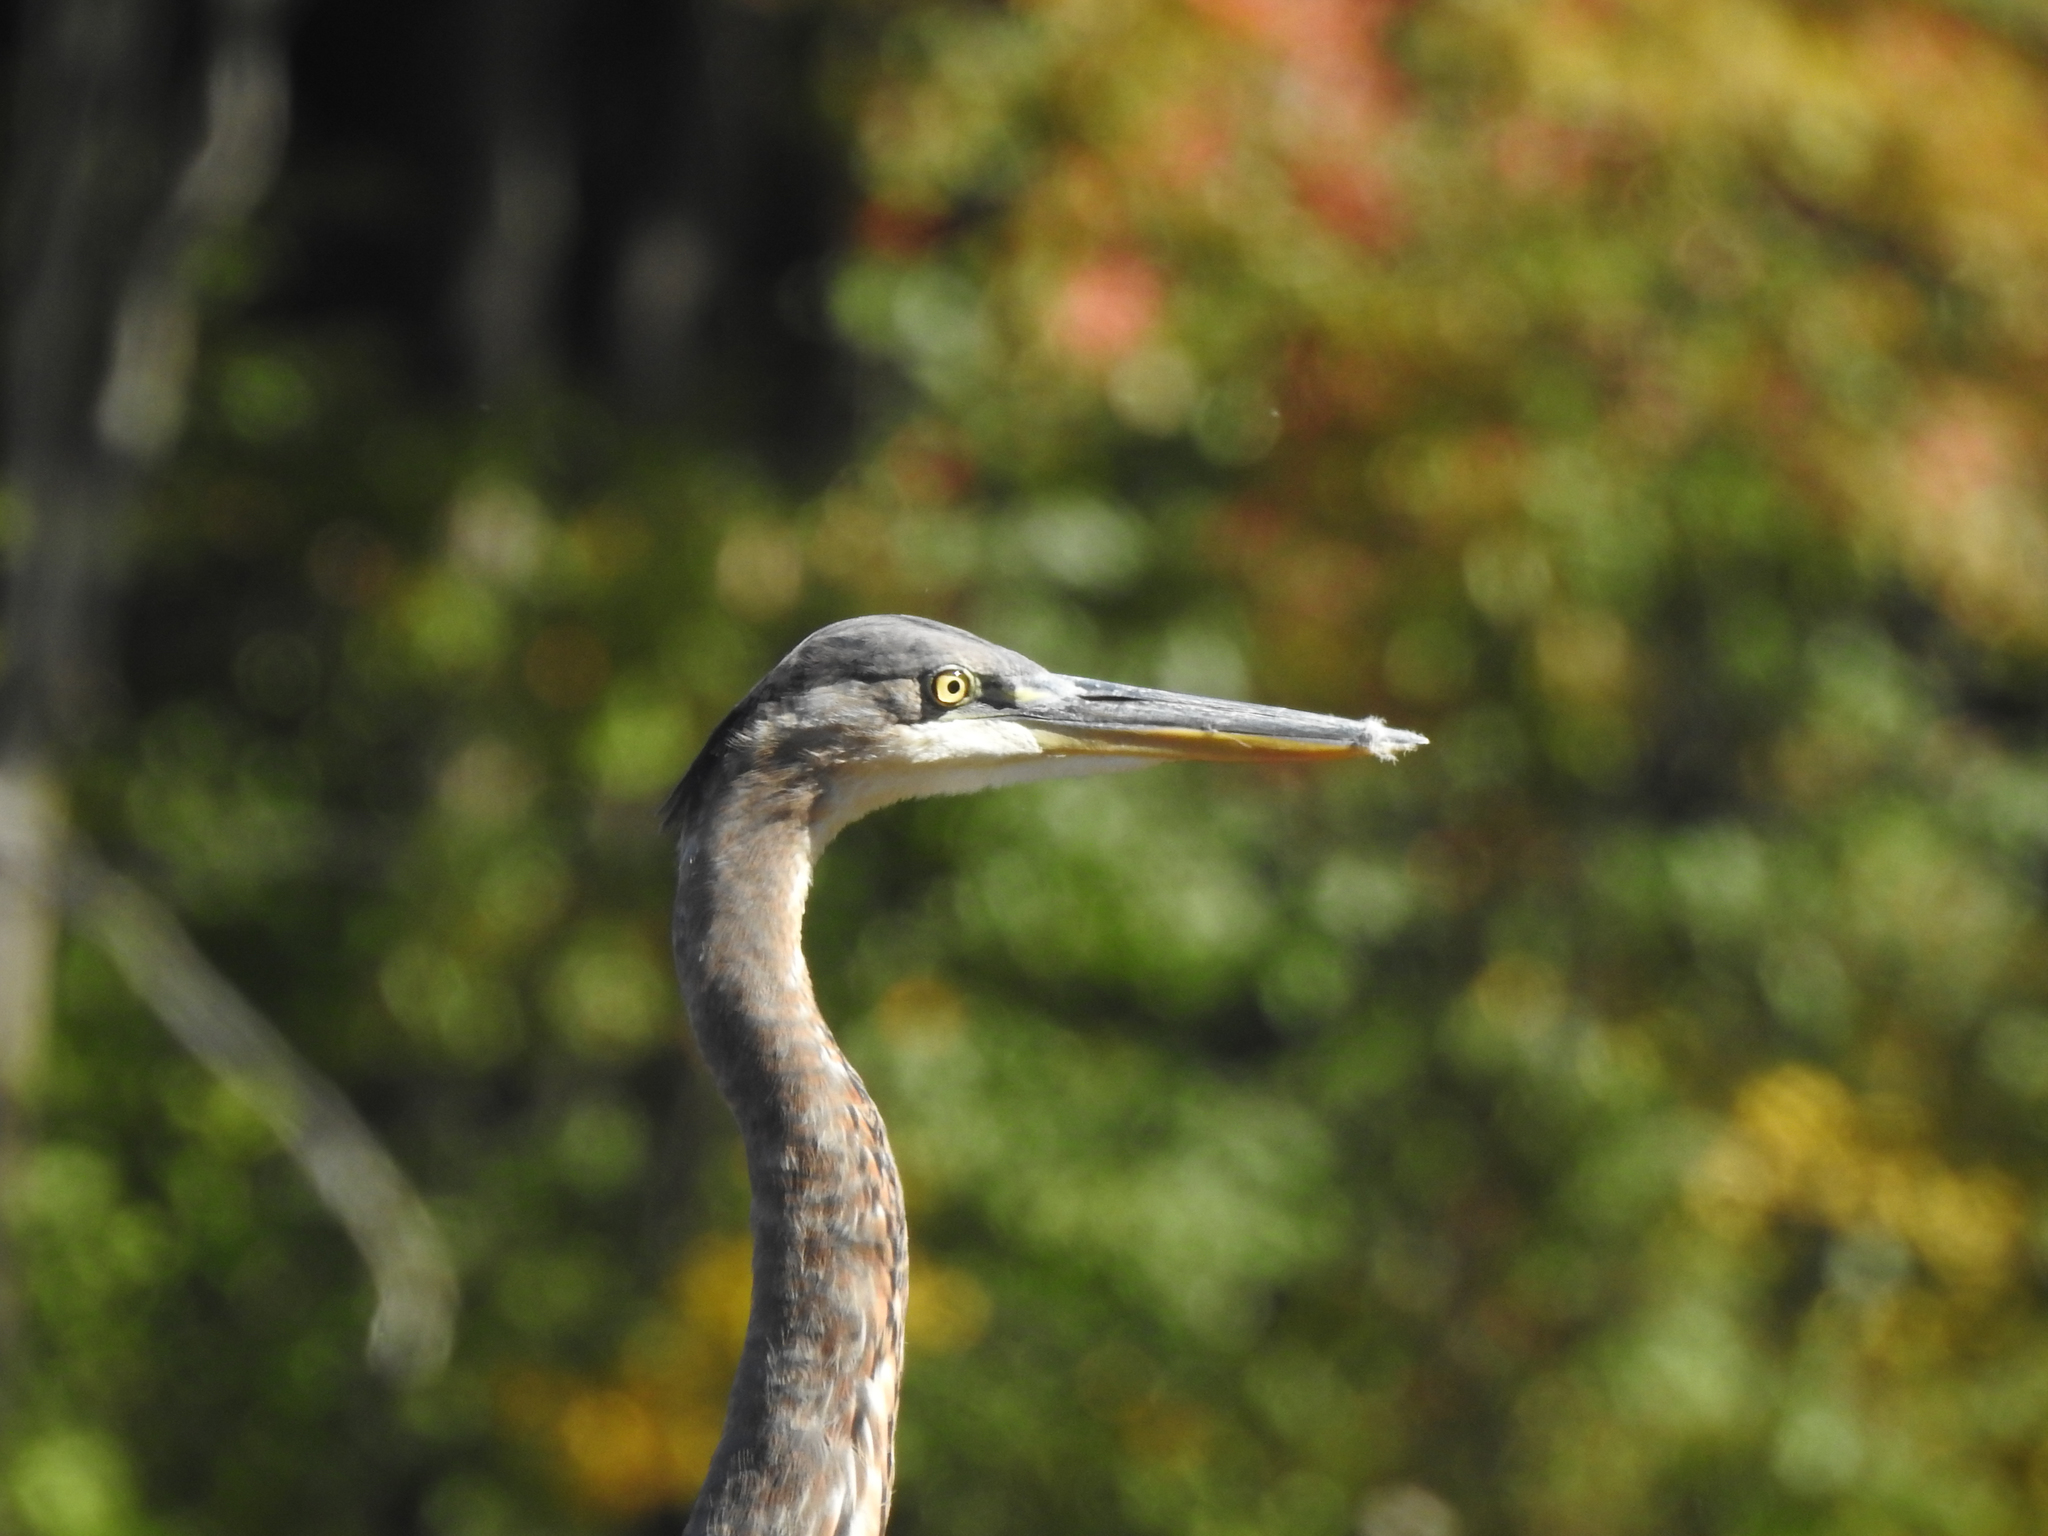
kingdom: Animalia
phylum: Chordata
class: Aves
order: Pelecaniformes
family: Ardeidae
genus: Ardea
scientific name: Ardea herodias
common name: Great blue heron
